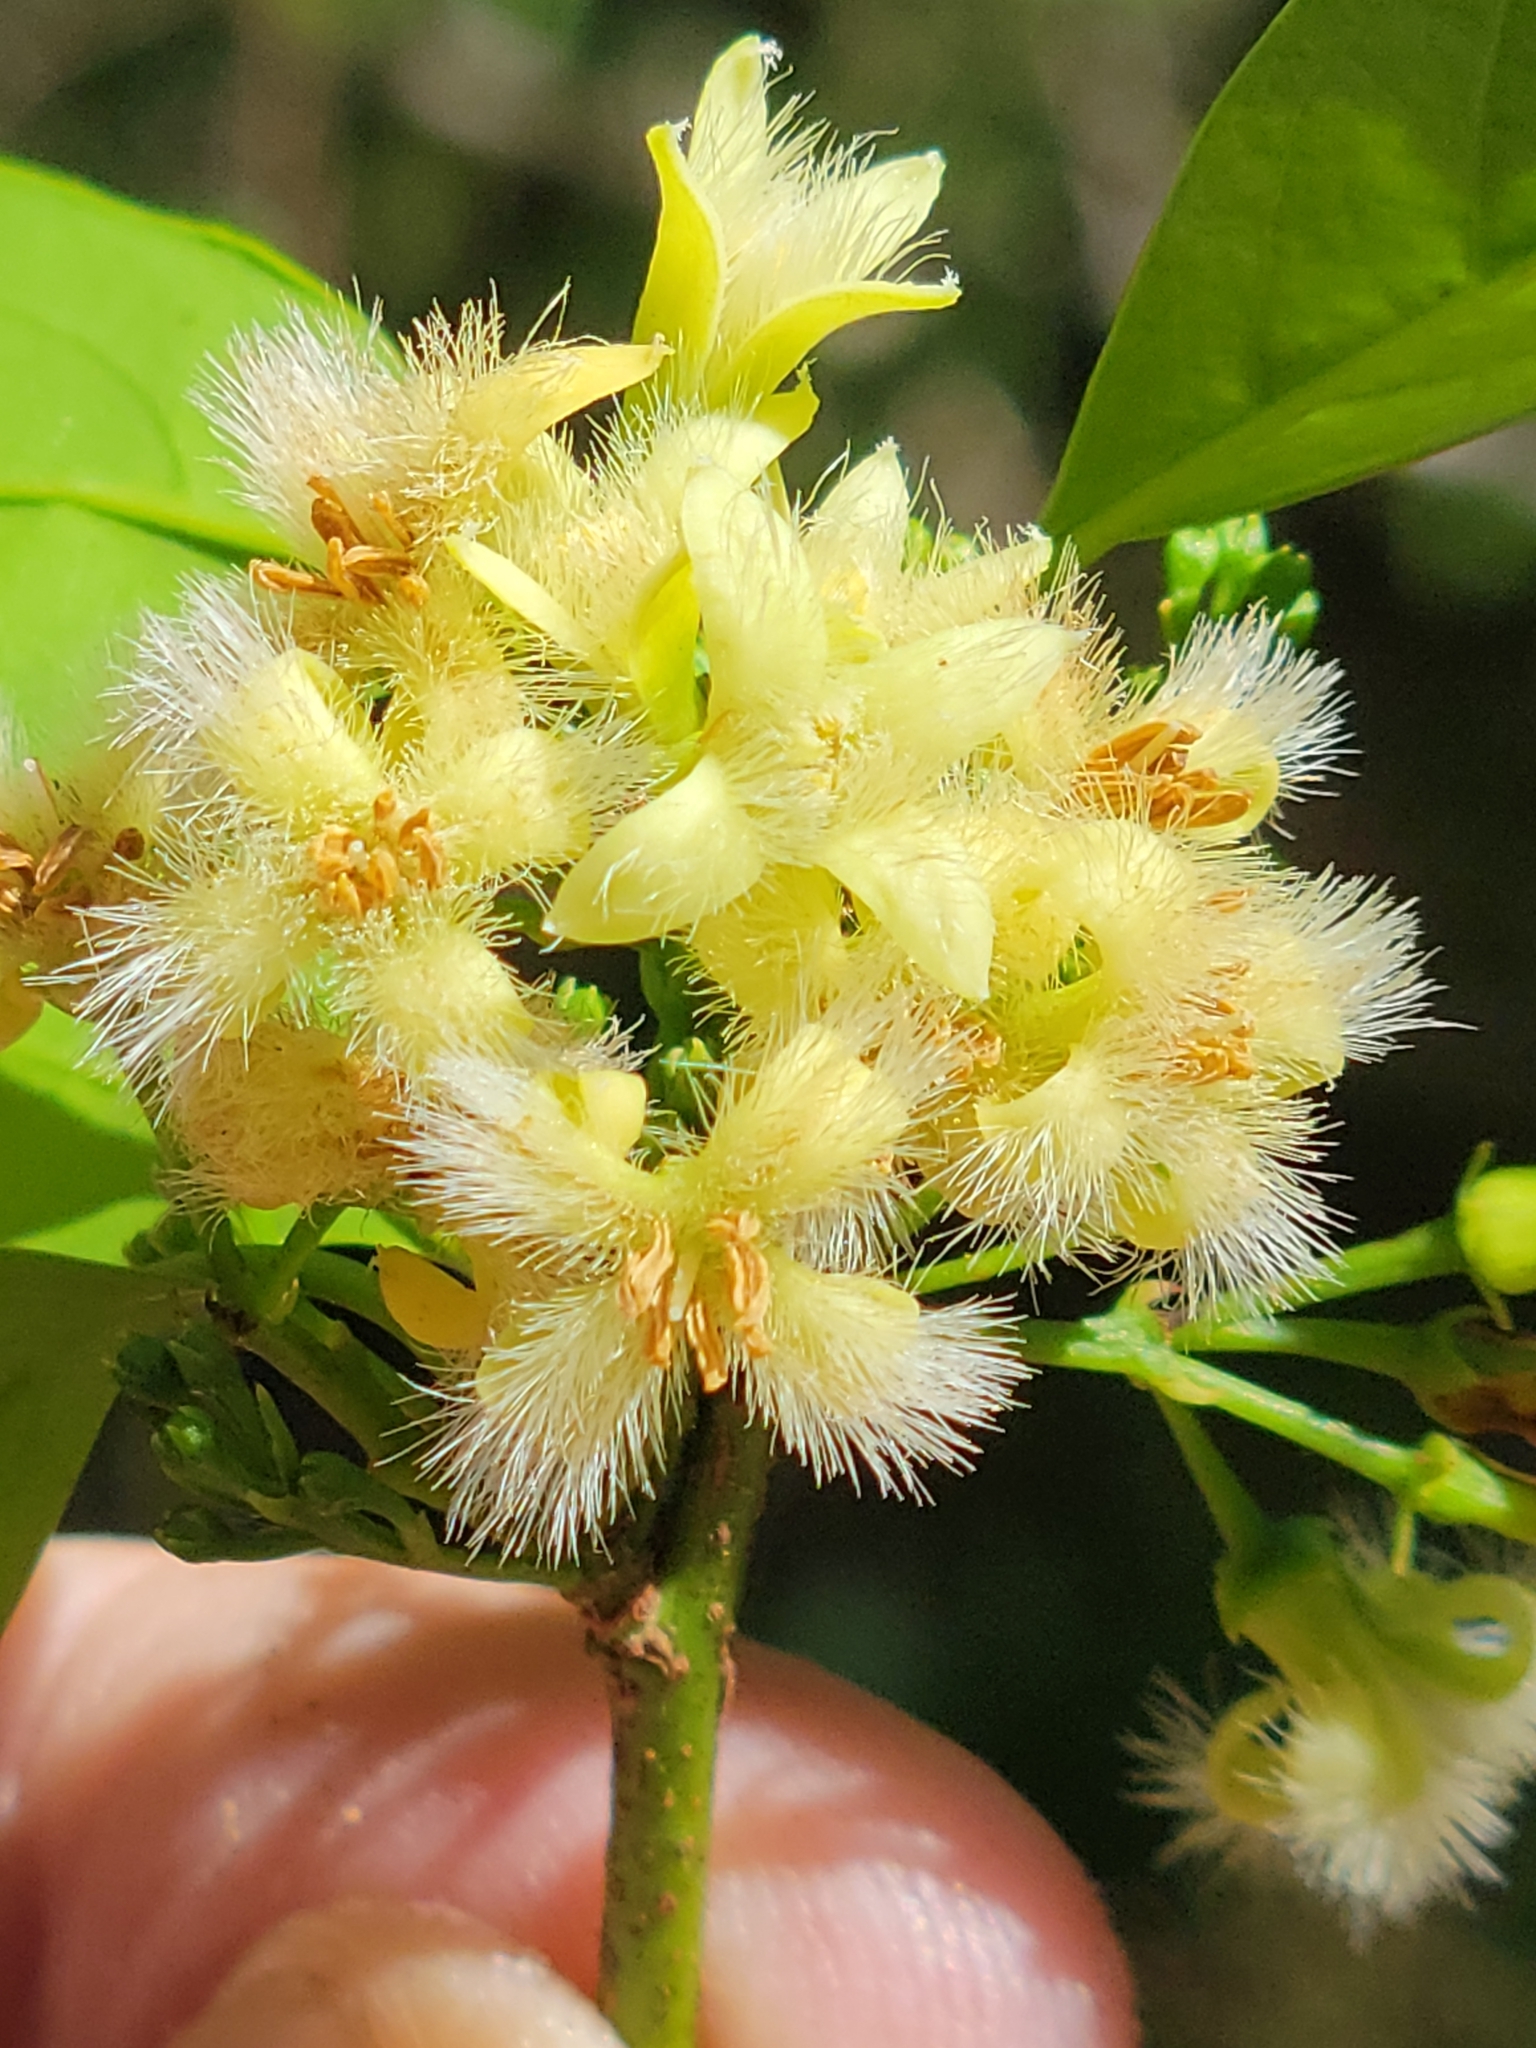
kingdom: Plantae
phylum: Tracheophyta
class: Magnoliopsida
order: Santalales
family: Ximeniaceae
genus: Ximenia
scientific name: Ximenia americana
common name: Tallowwood
